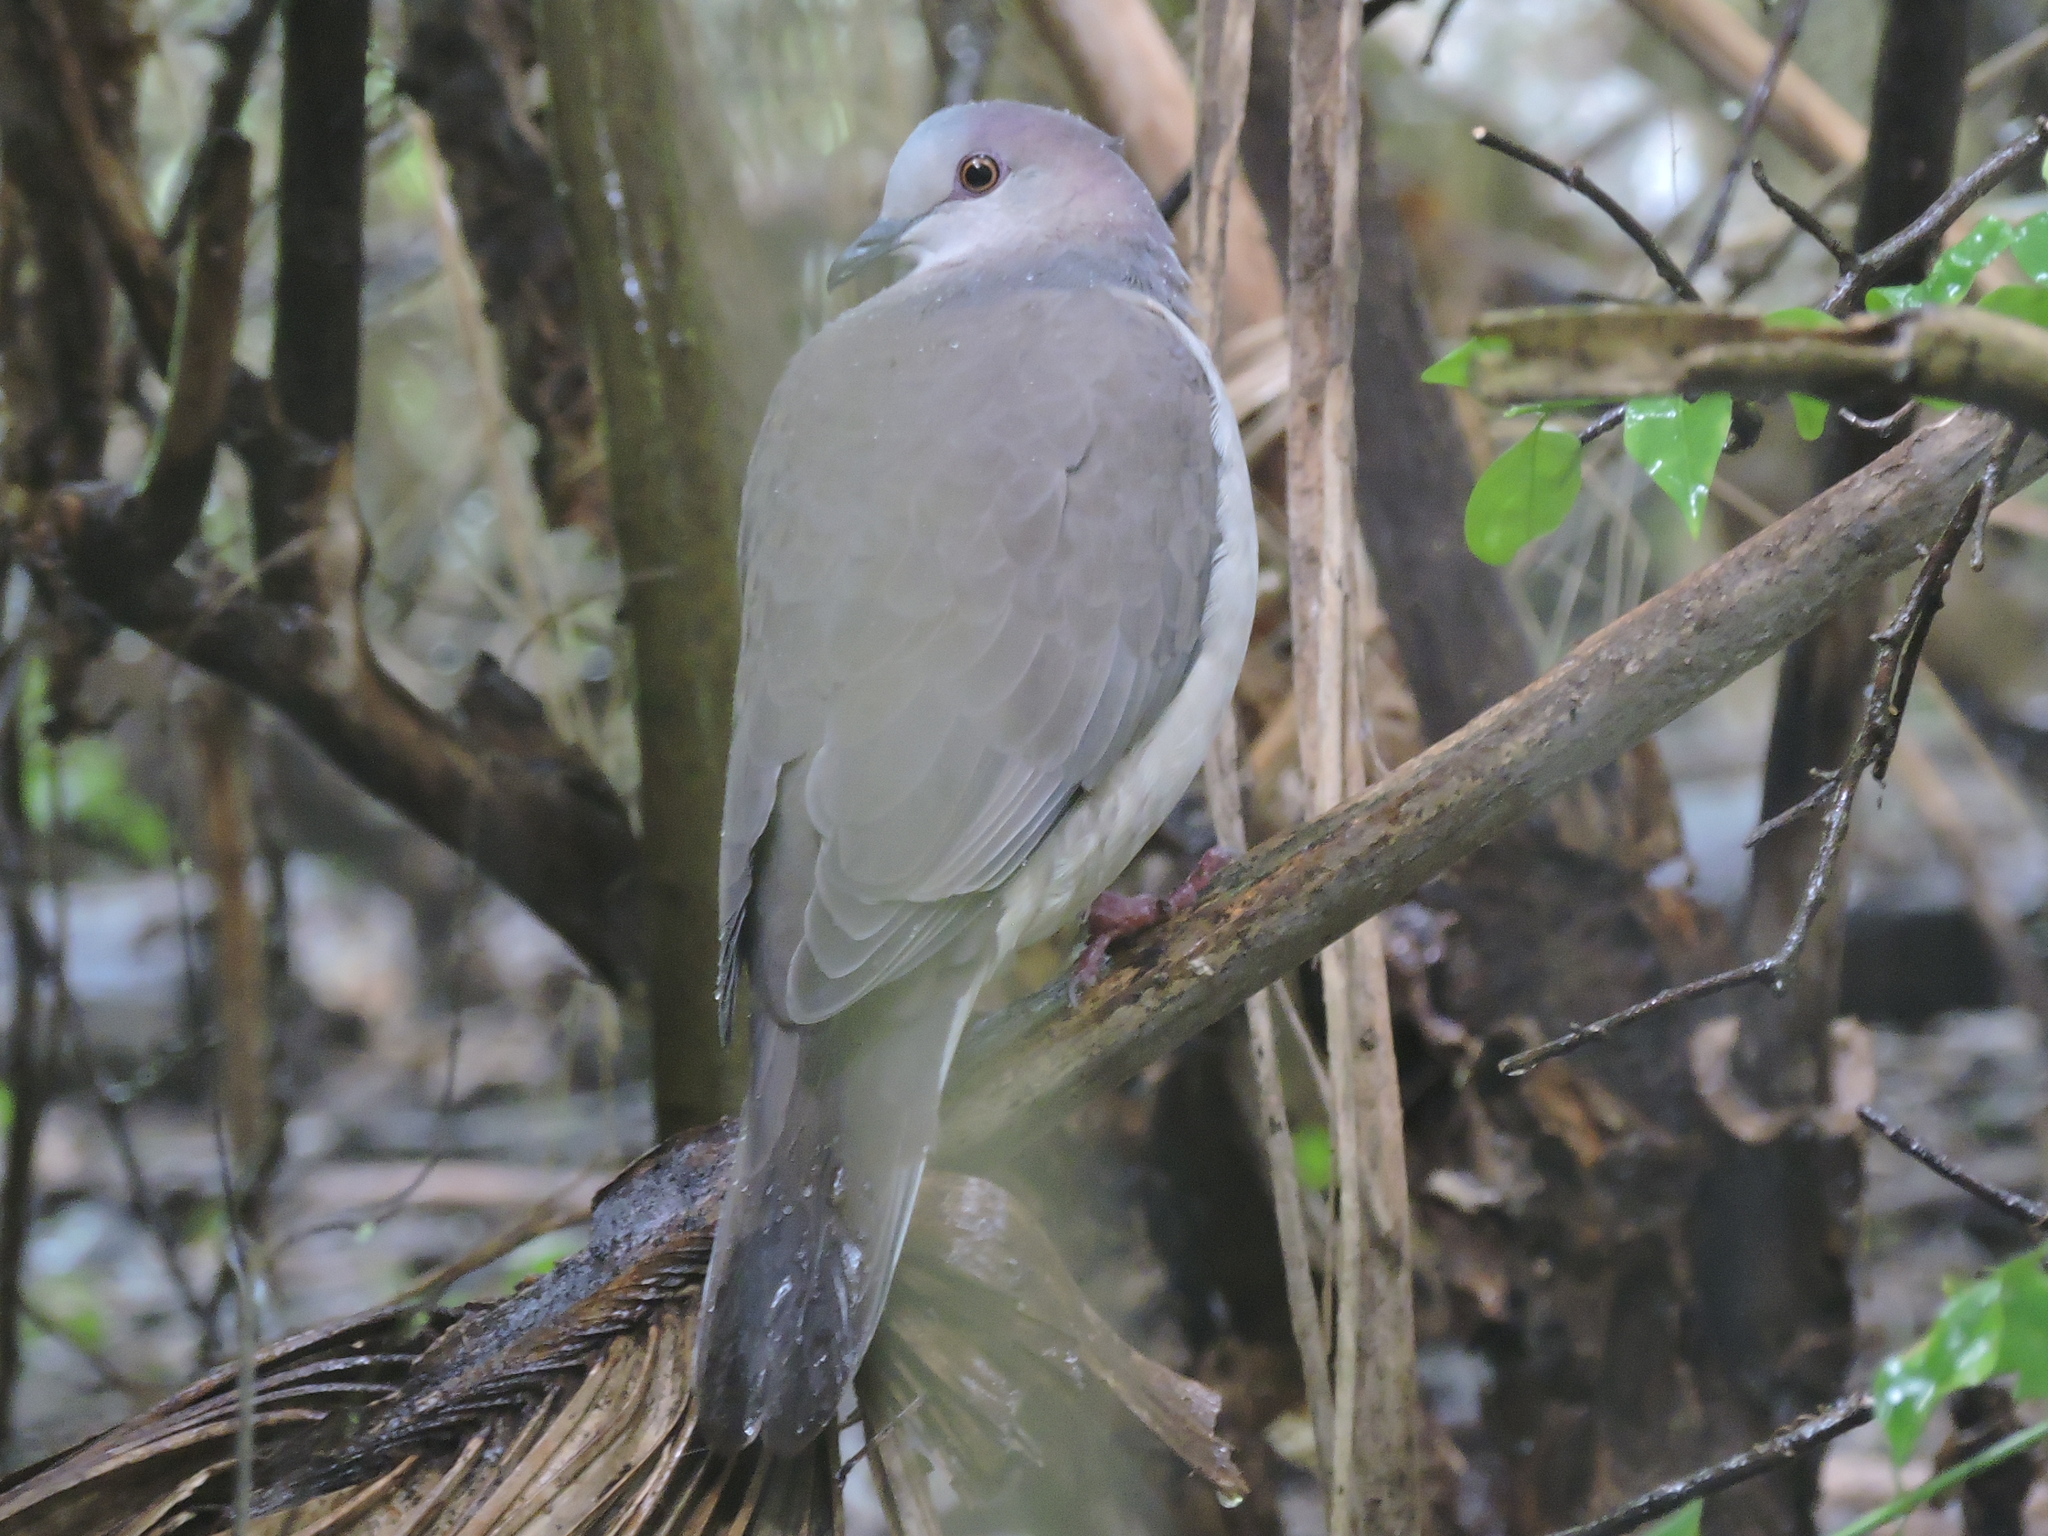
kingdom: Animalia
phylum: Chordata
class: Aves
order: Columbiformes
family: Columbidae
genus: Leptotila
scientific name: Leptotila verreauxi
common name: White-tipped dove
